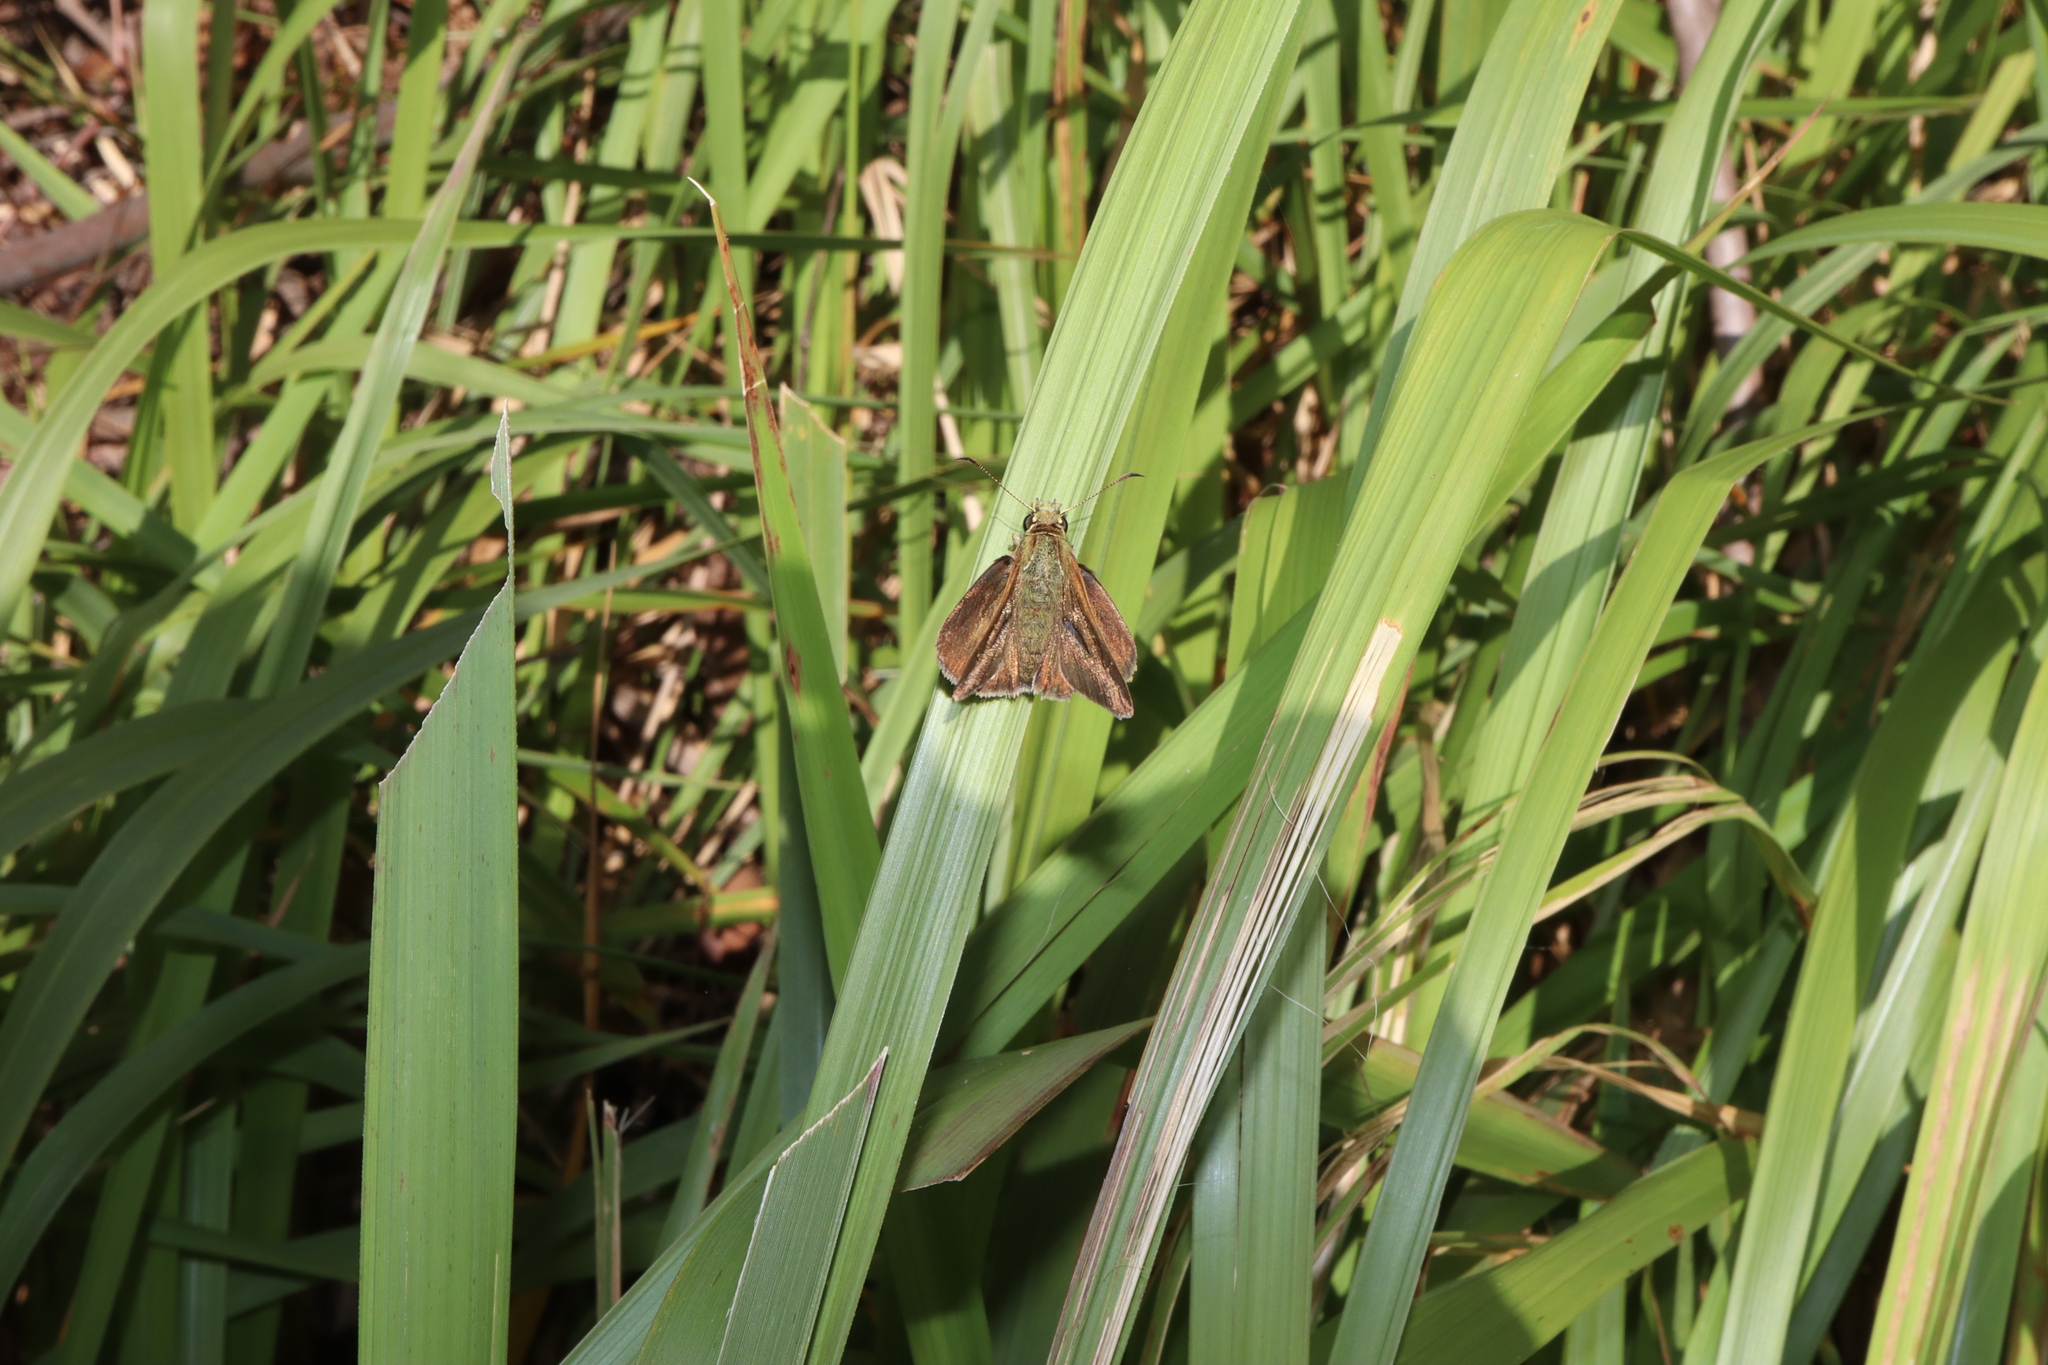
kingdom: Animalia
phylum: Arthropoda
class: Insecta
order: Lepidoptera
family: Hesperiidae
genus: Toxidia
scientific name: Toxidia
